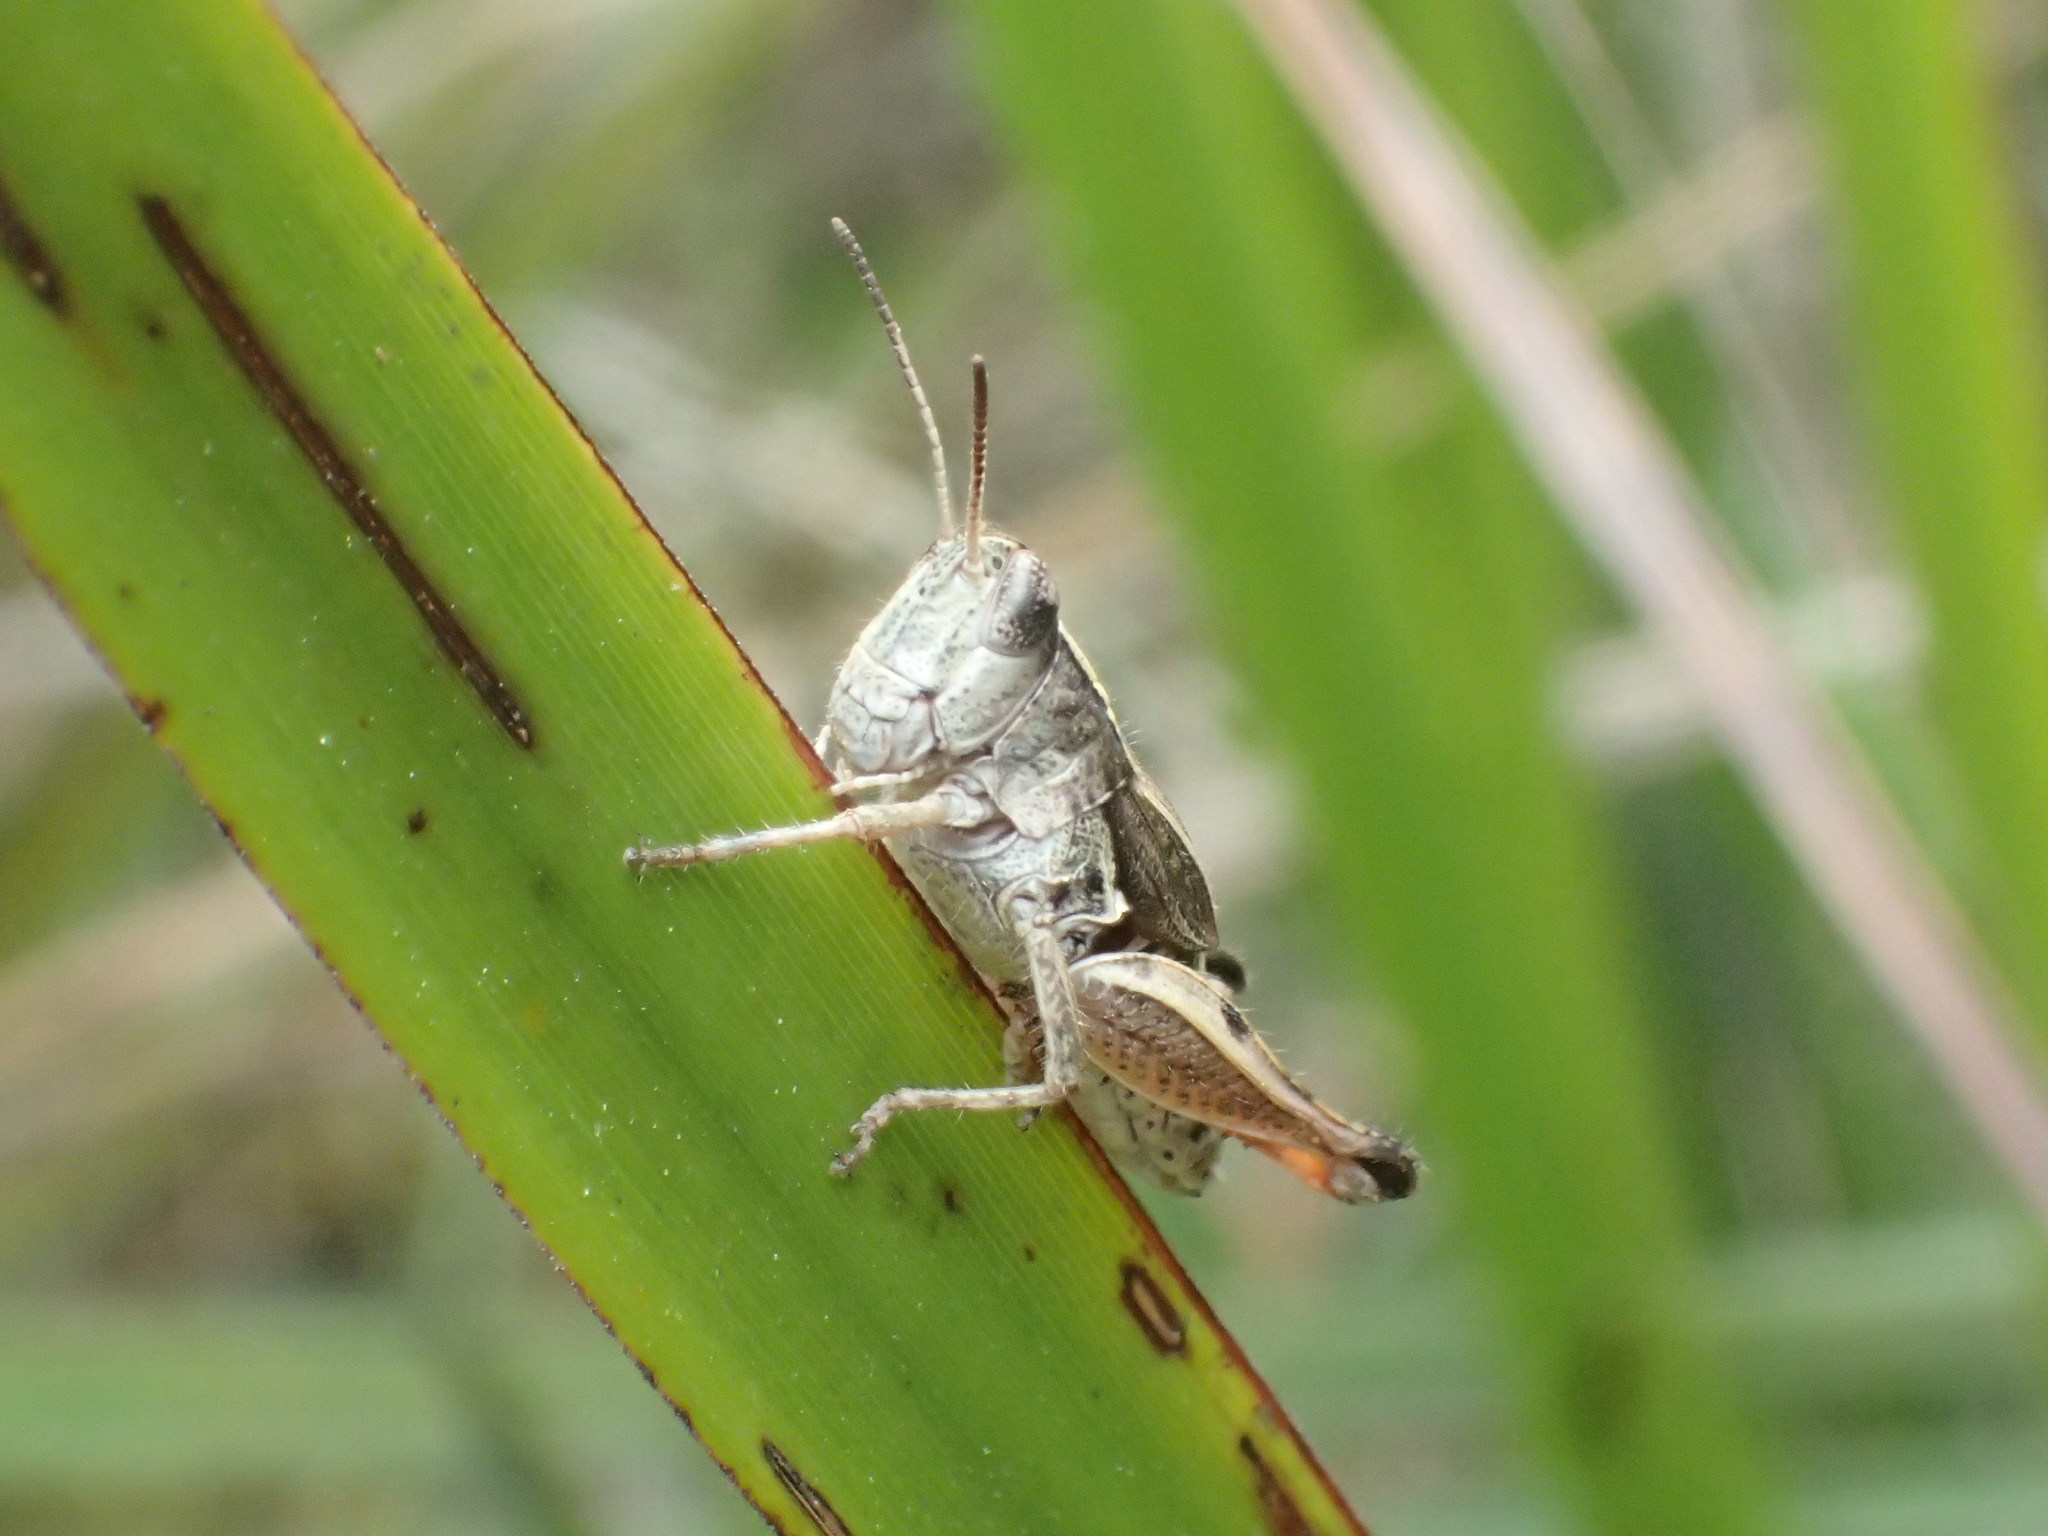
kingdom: Animalia
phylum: Arthropoda
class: Insecta
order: Orthoptera
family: Acrididae
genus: Phaulacridium
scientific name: Phaulacridium vittatum
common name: Wingless grasshopper
